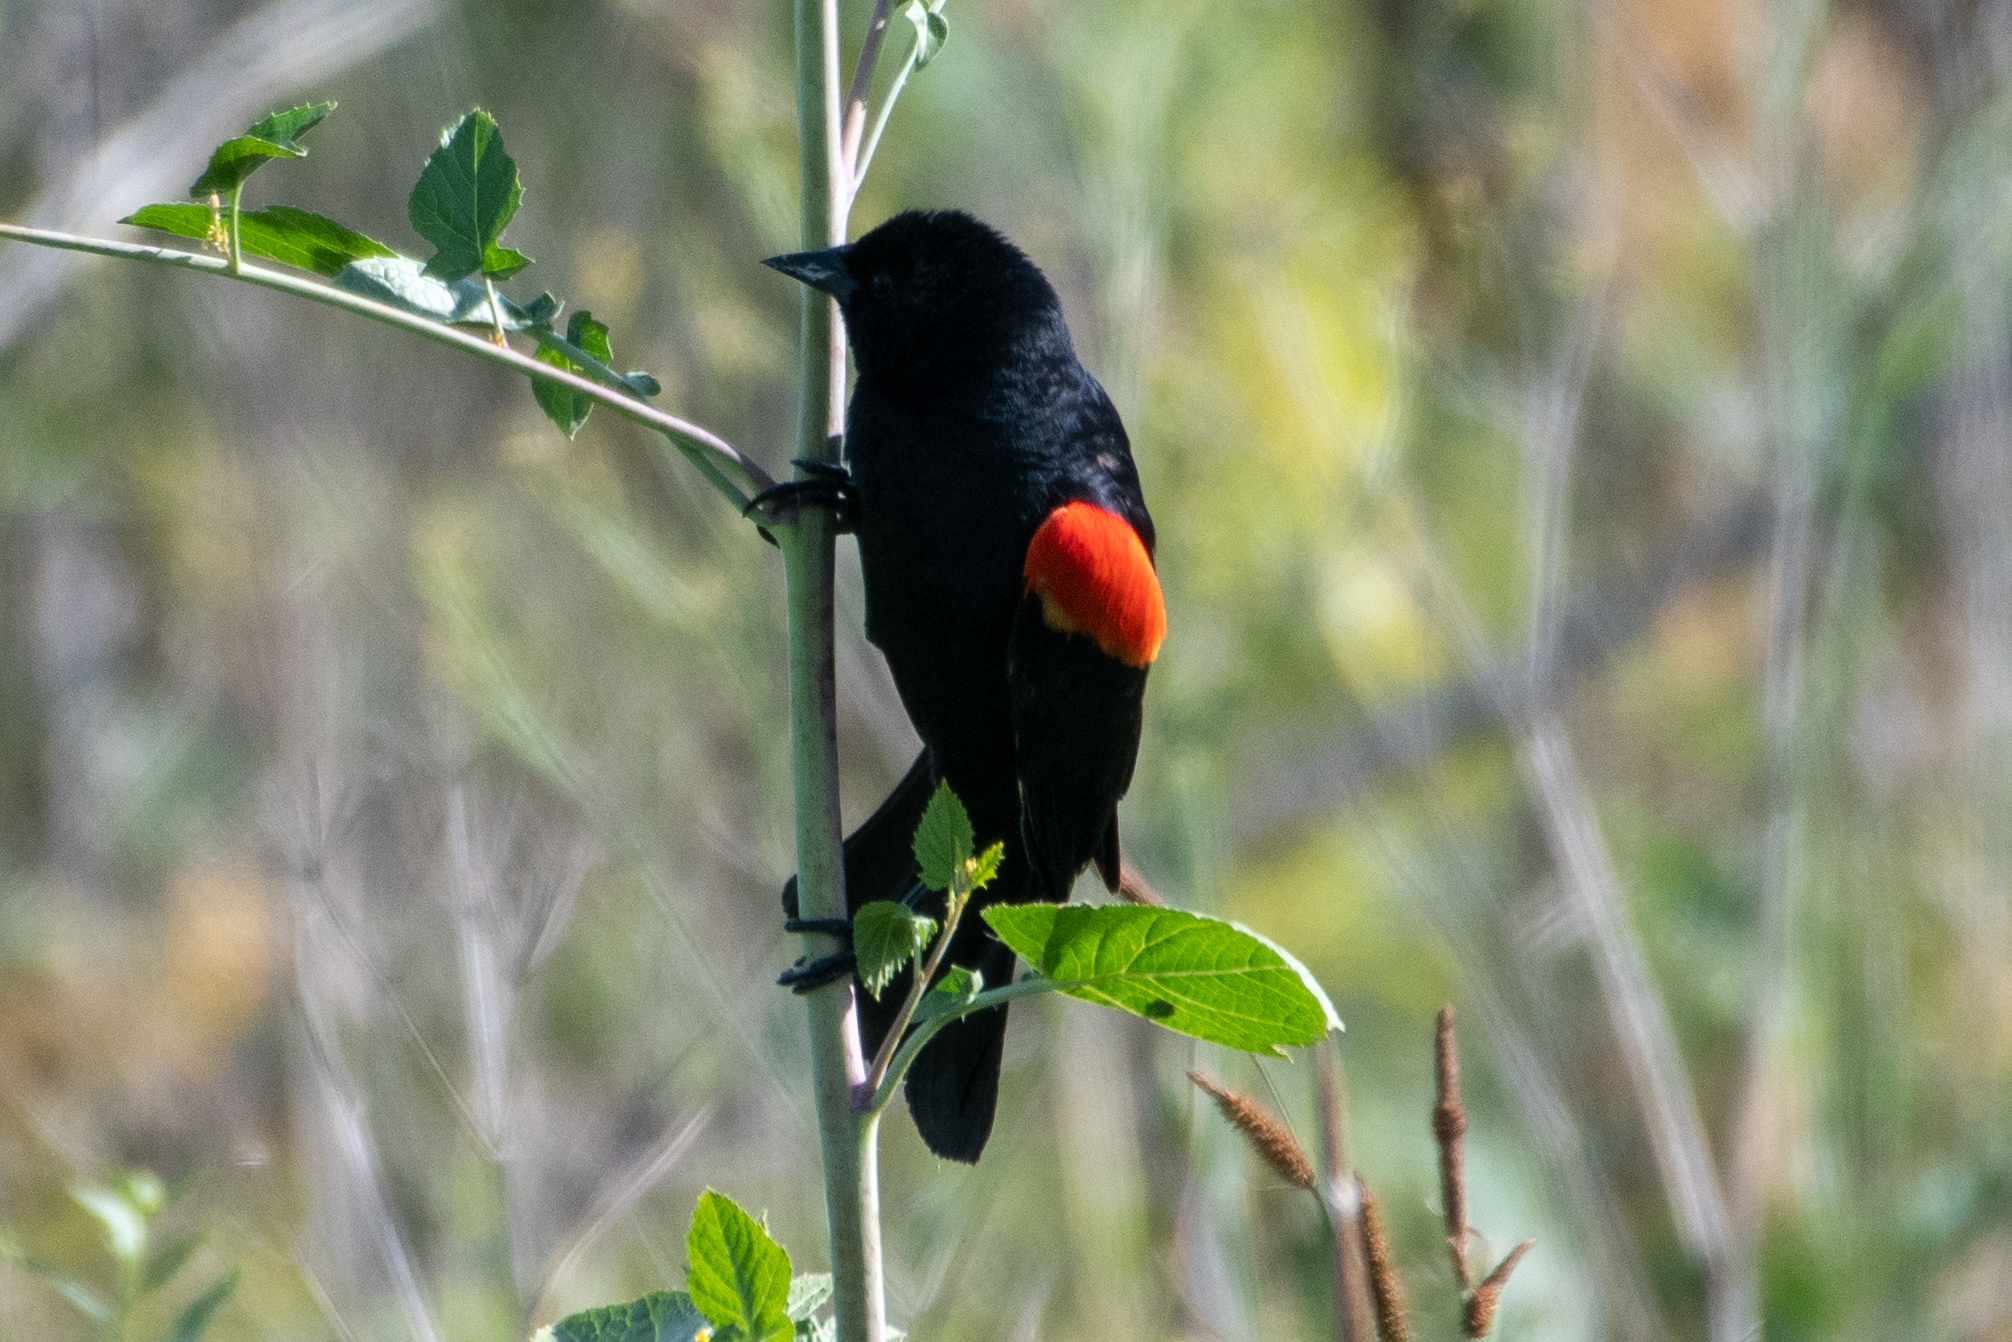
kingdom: Animalia
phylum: Chordata
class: Aves
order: Passeriformes
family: Icteridae
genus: Agelaius
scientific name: Agelaius phoeniceus
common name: Red-winged blackbird
